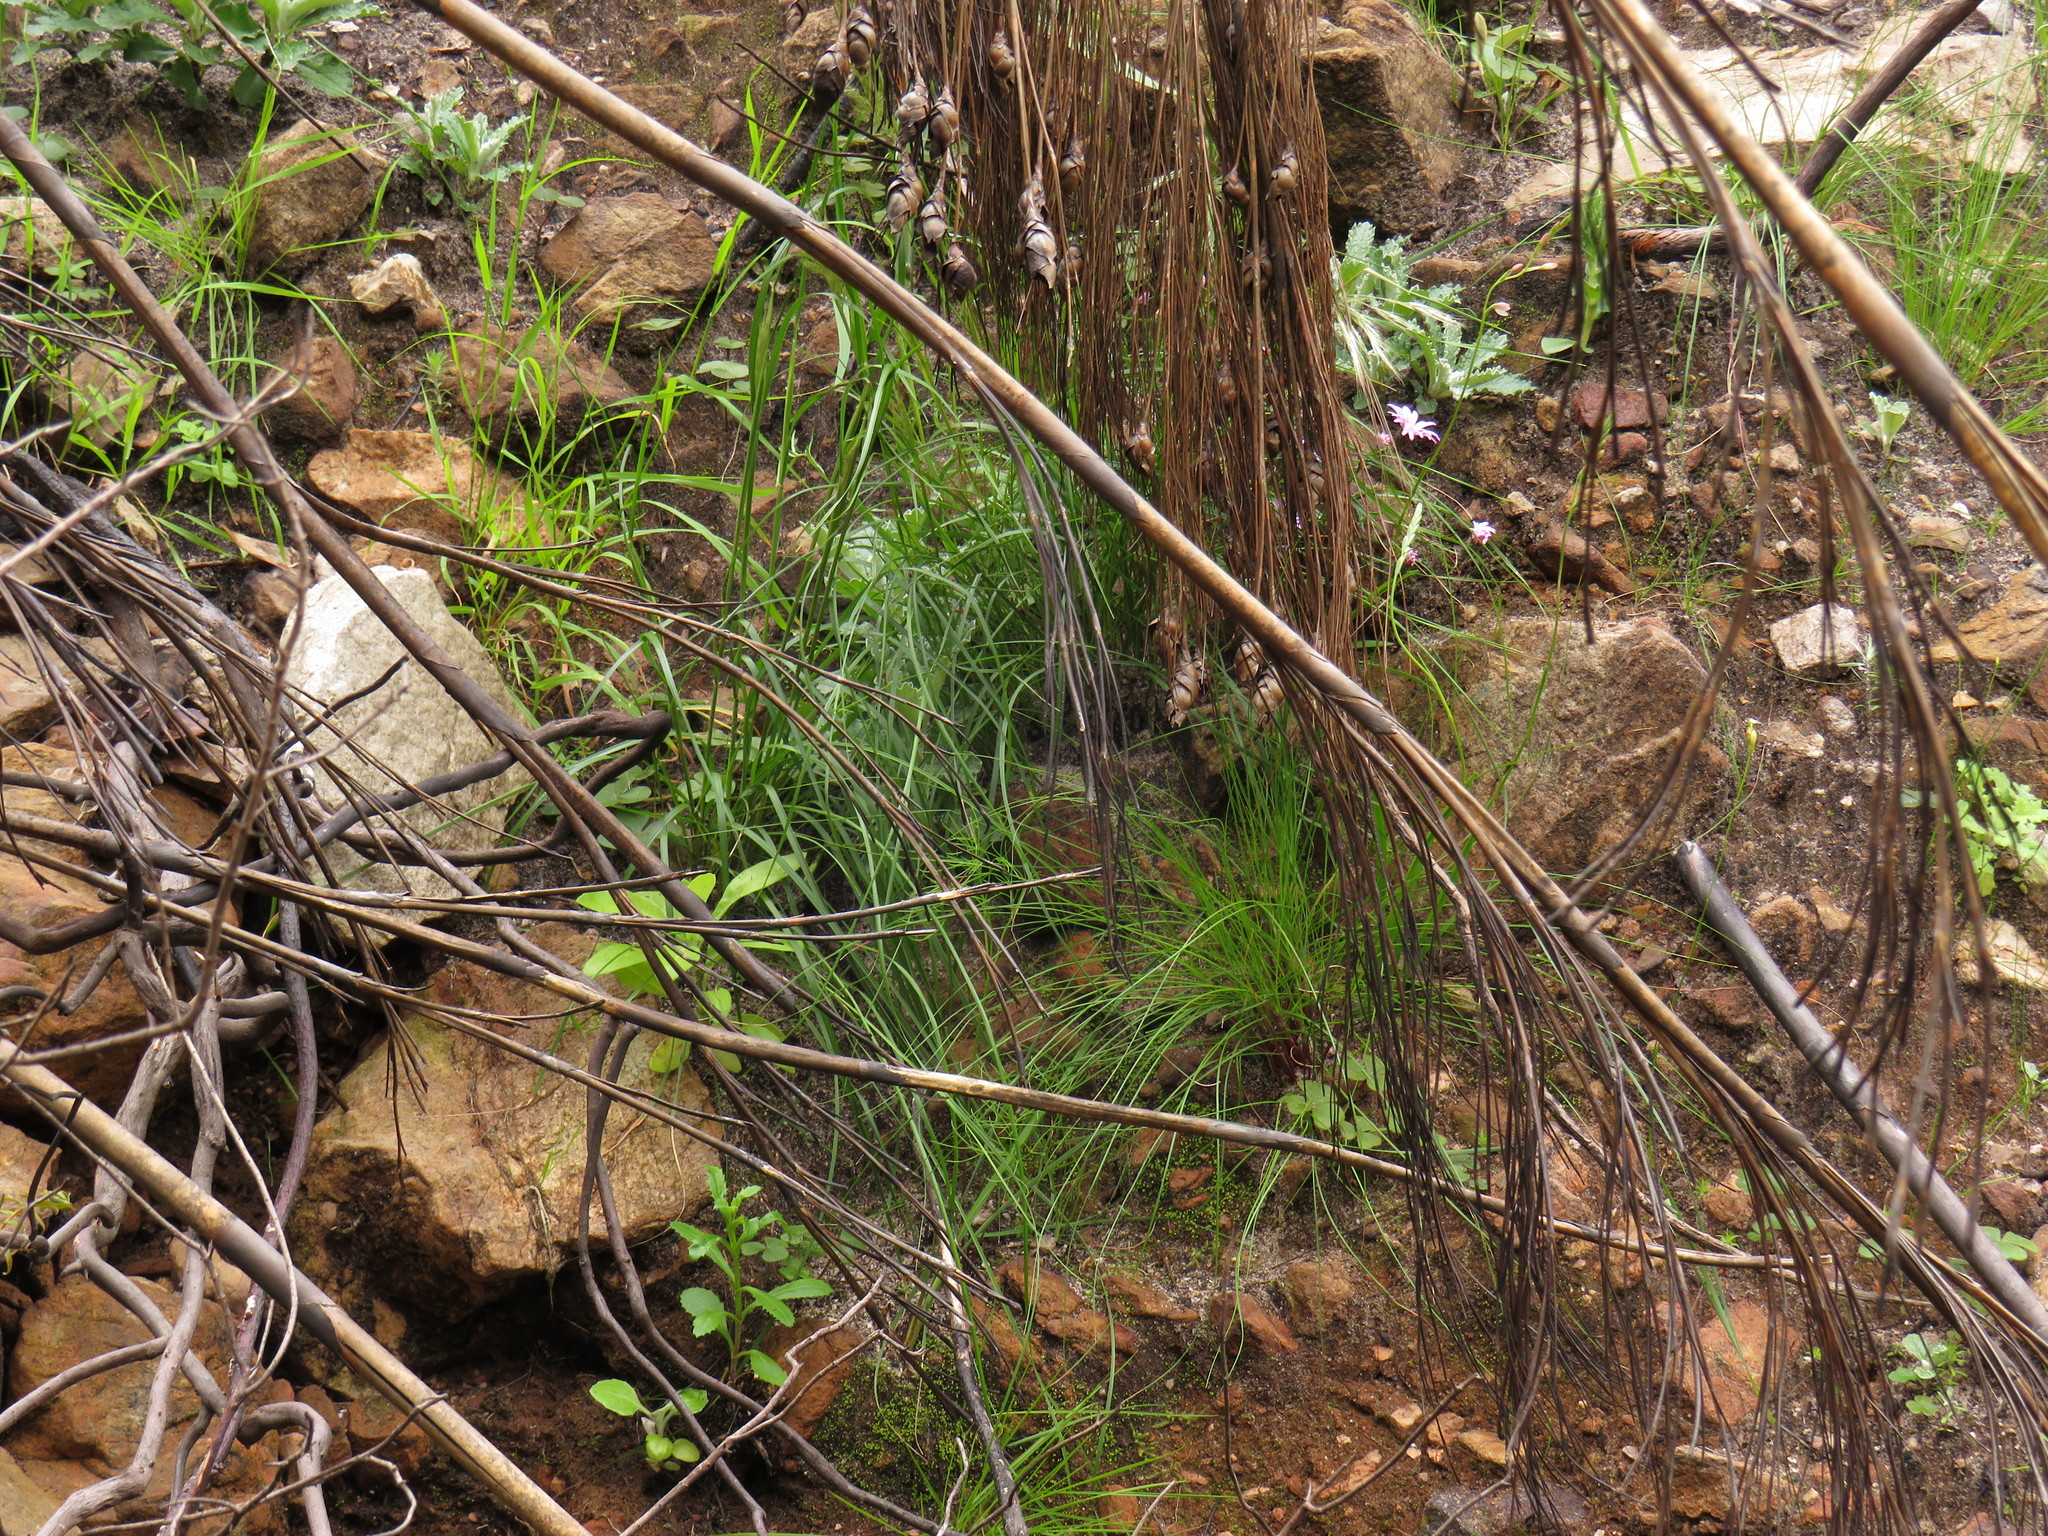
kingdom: Plantae
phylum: Tracheophyta
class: Magnoliopsida
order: Asterales
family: Asteraceae
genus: Athrixia
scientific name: Athrixia heterophylla
